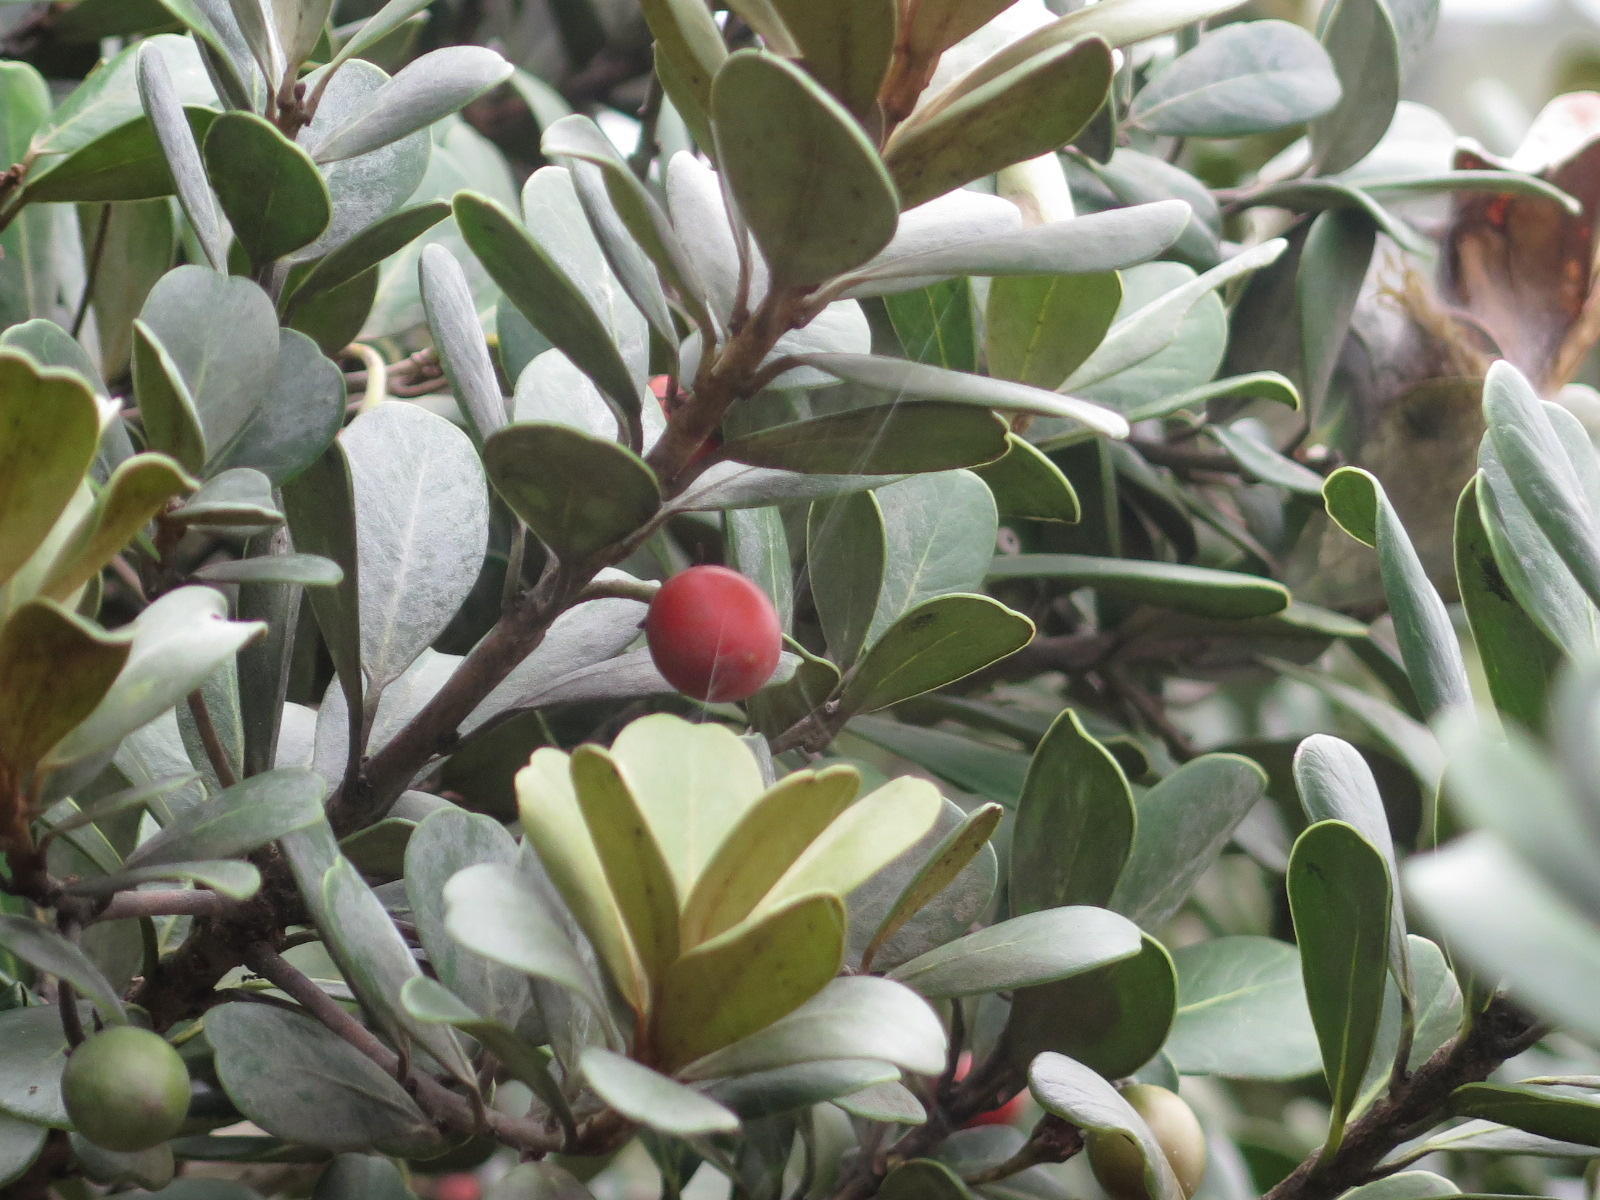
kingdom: Plantae
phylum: Tracheophyta
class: Magnoliopsida
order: Ericales
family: Sapotaceae
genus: Mimusops
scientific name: Mimusops caffra
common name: Coastal red milkwood
